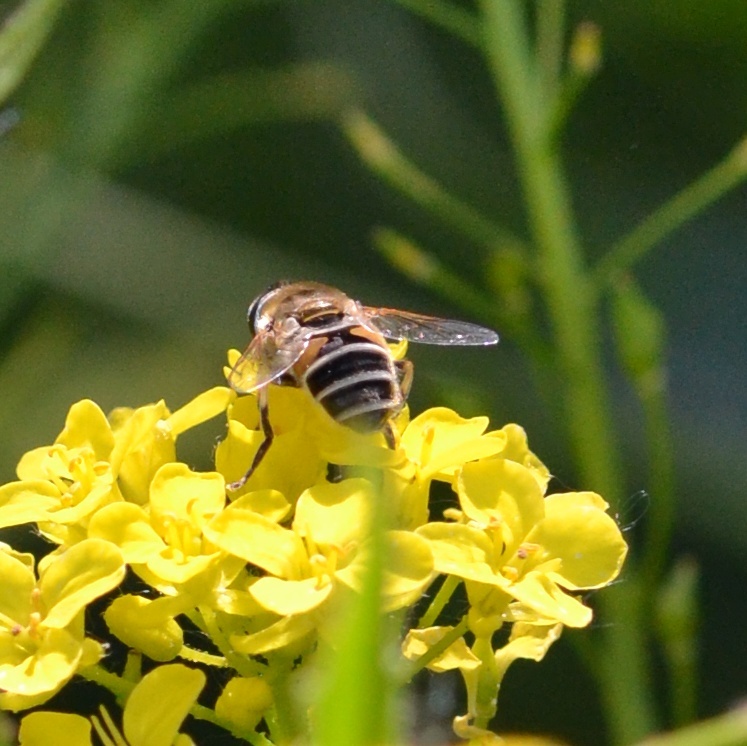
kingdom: Animalia
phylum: Arthropoda
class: Insecta
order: Diptera
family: Syrphidae
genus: Eristalis
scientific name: Eristalis arbustorum
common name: Hover fly
